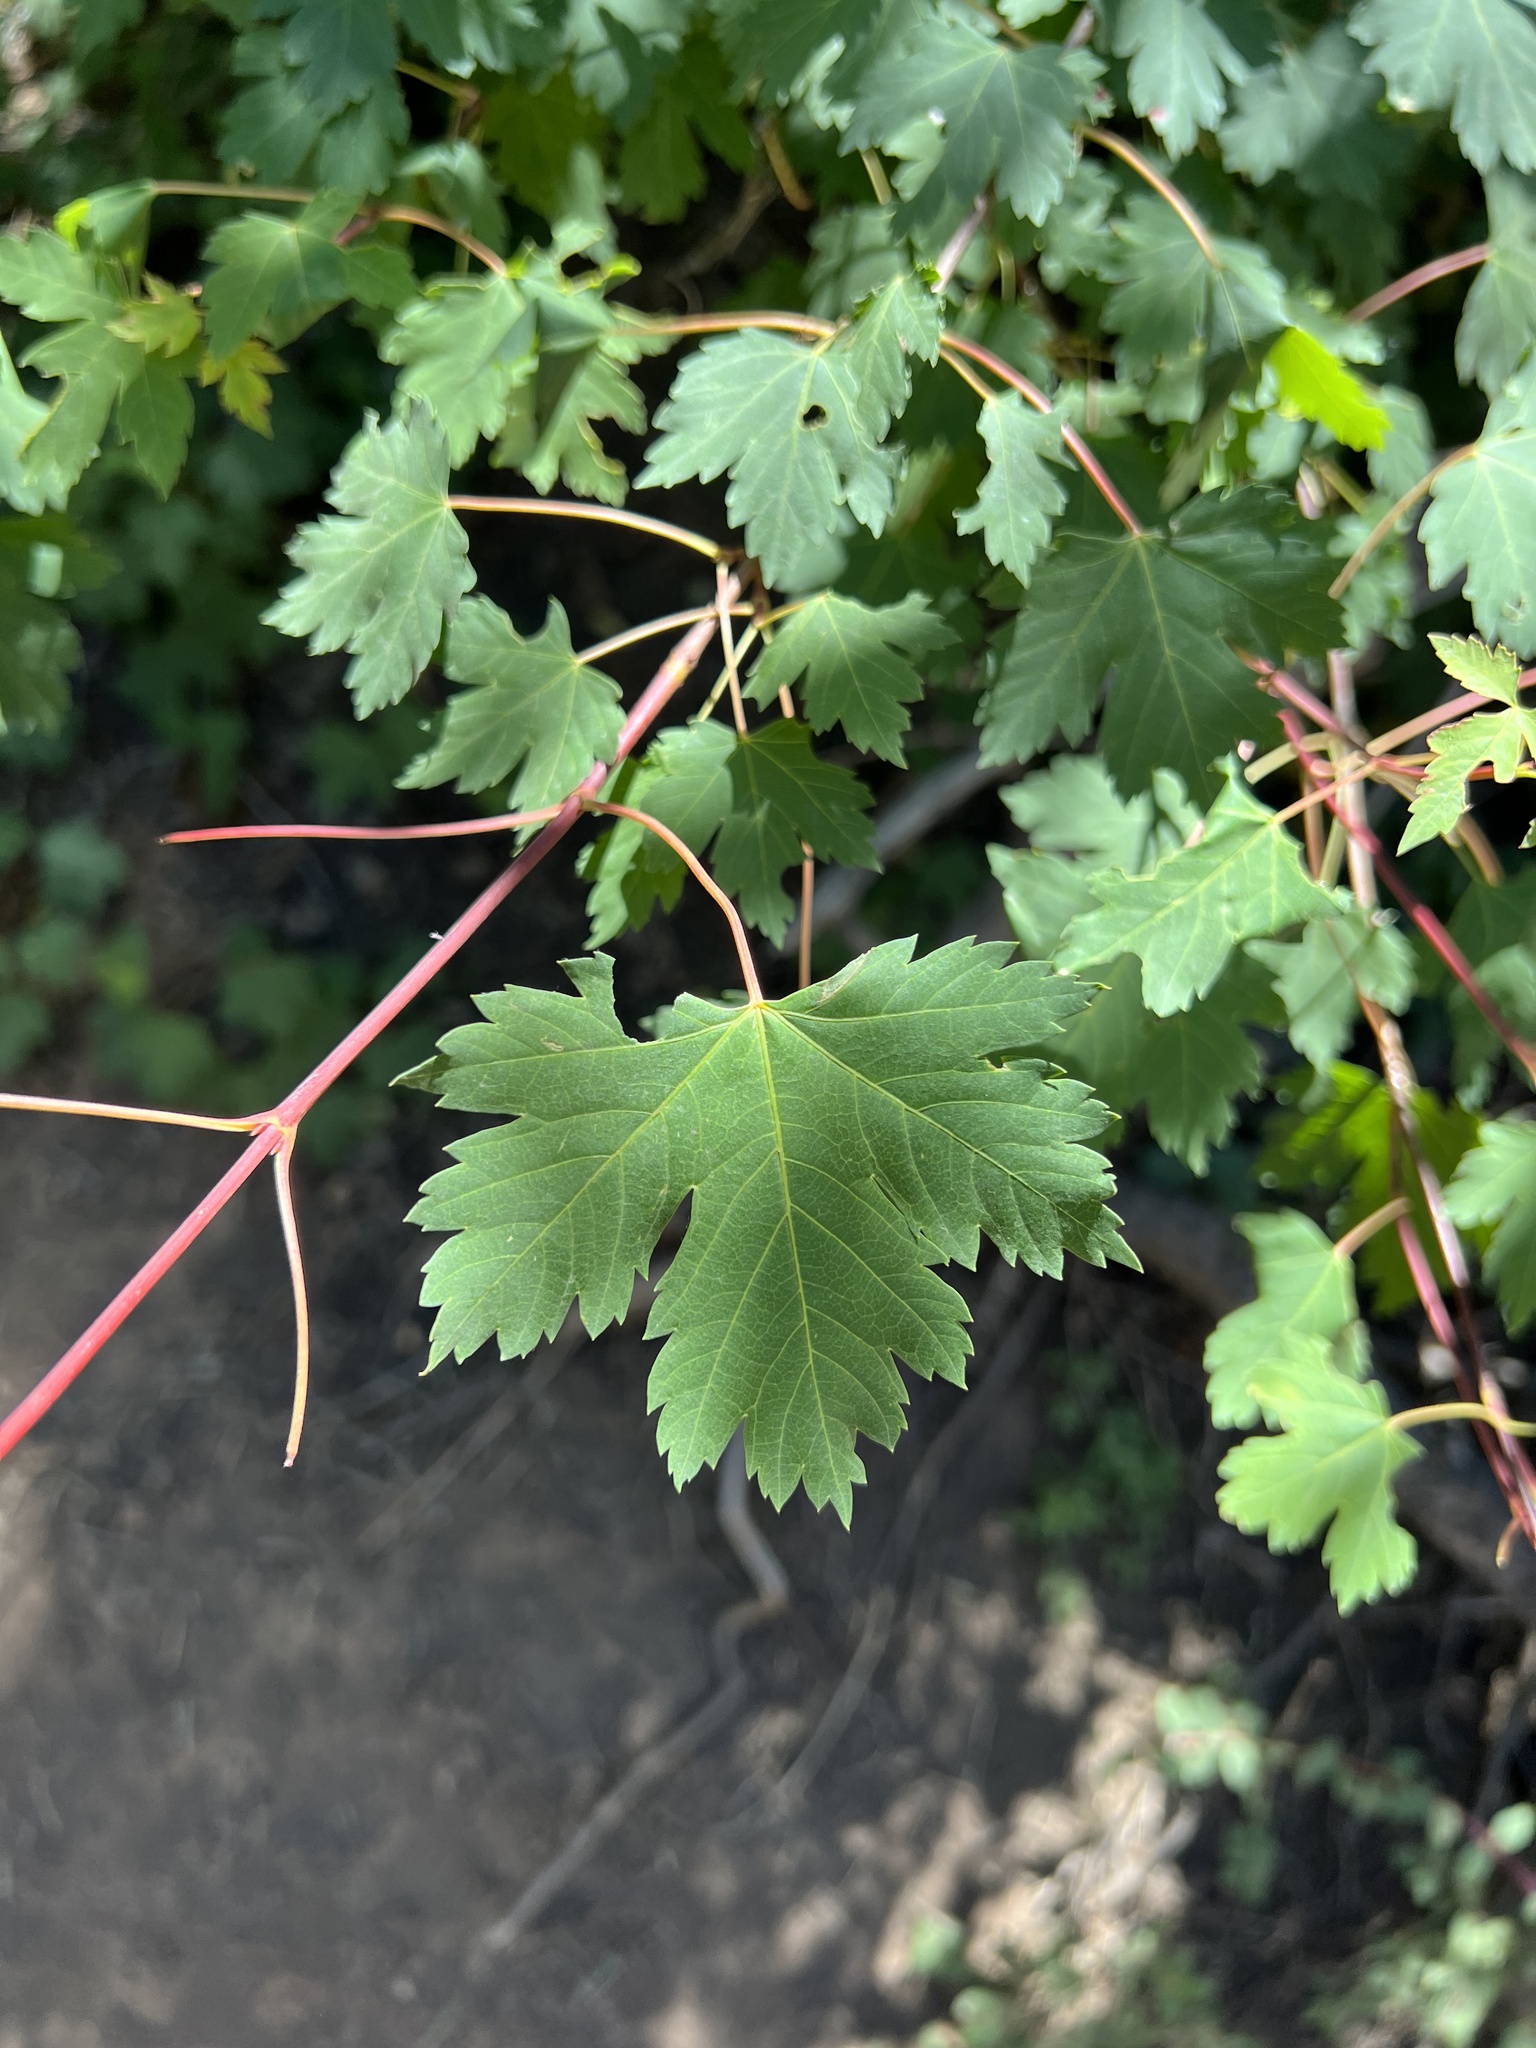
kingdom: Plantae
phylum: Tracheophyta
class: Magnoliopsida
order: Sapindales
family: Sapindaceae
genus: Acer
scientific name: Acer glabrum
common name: Rocky mountain maple
